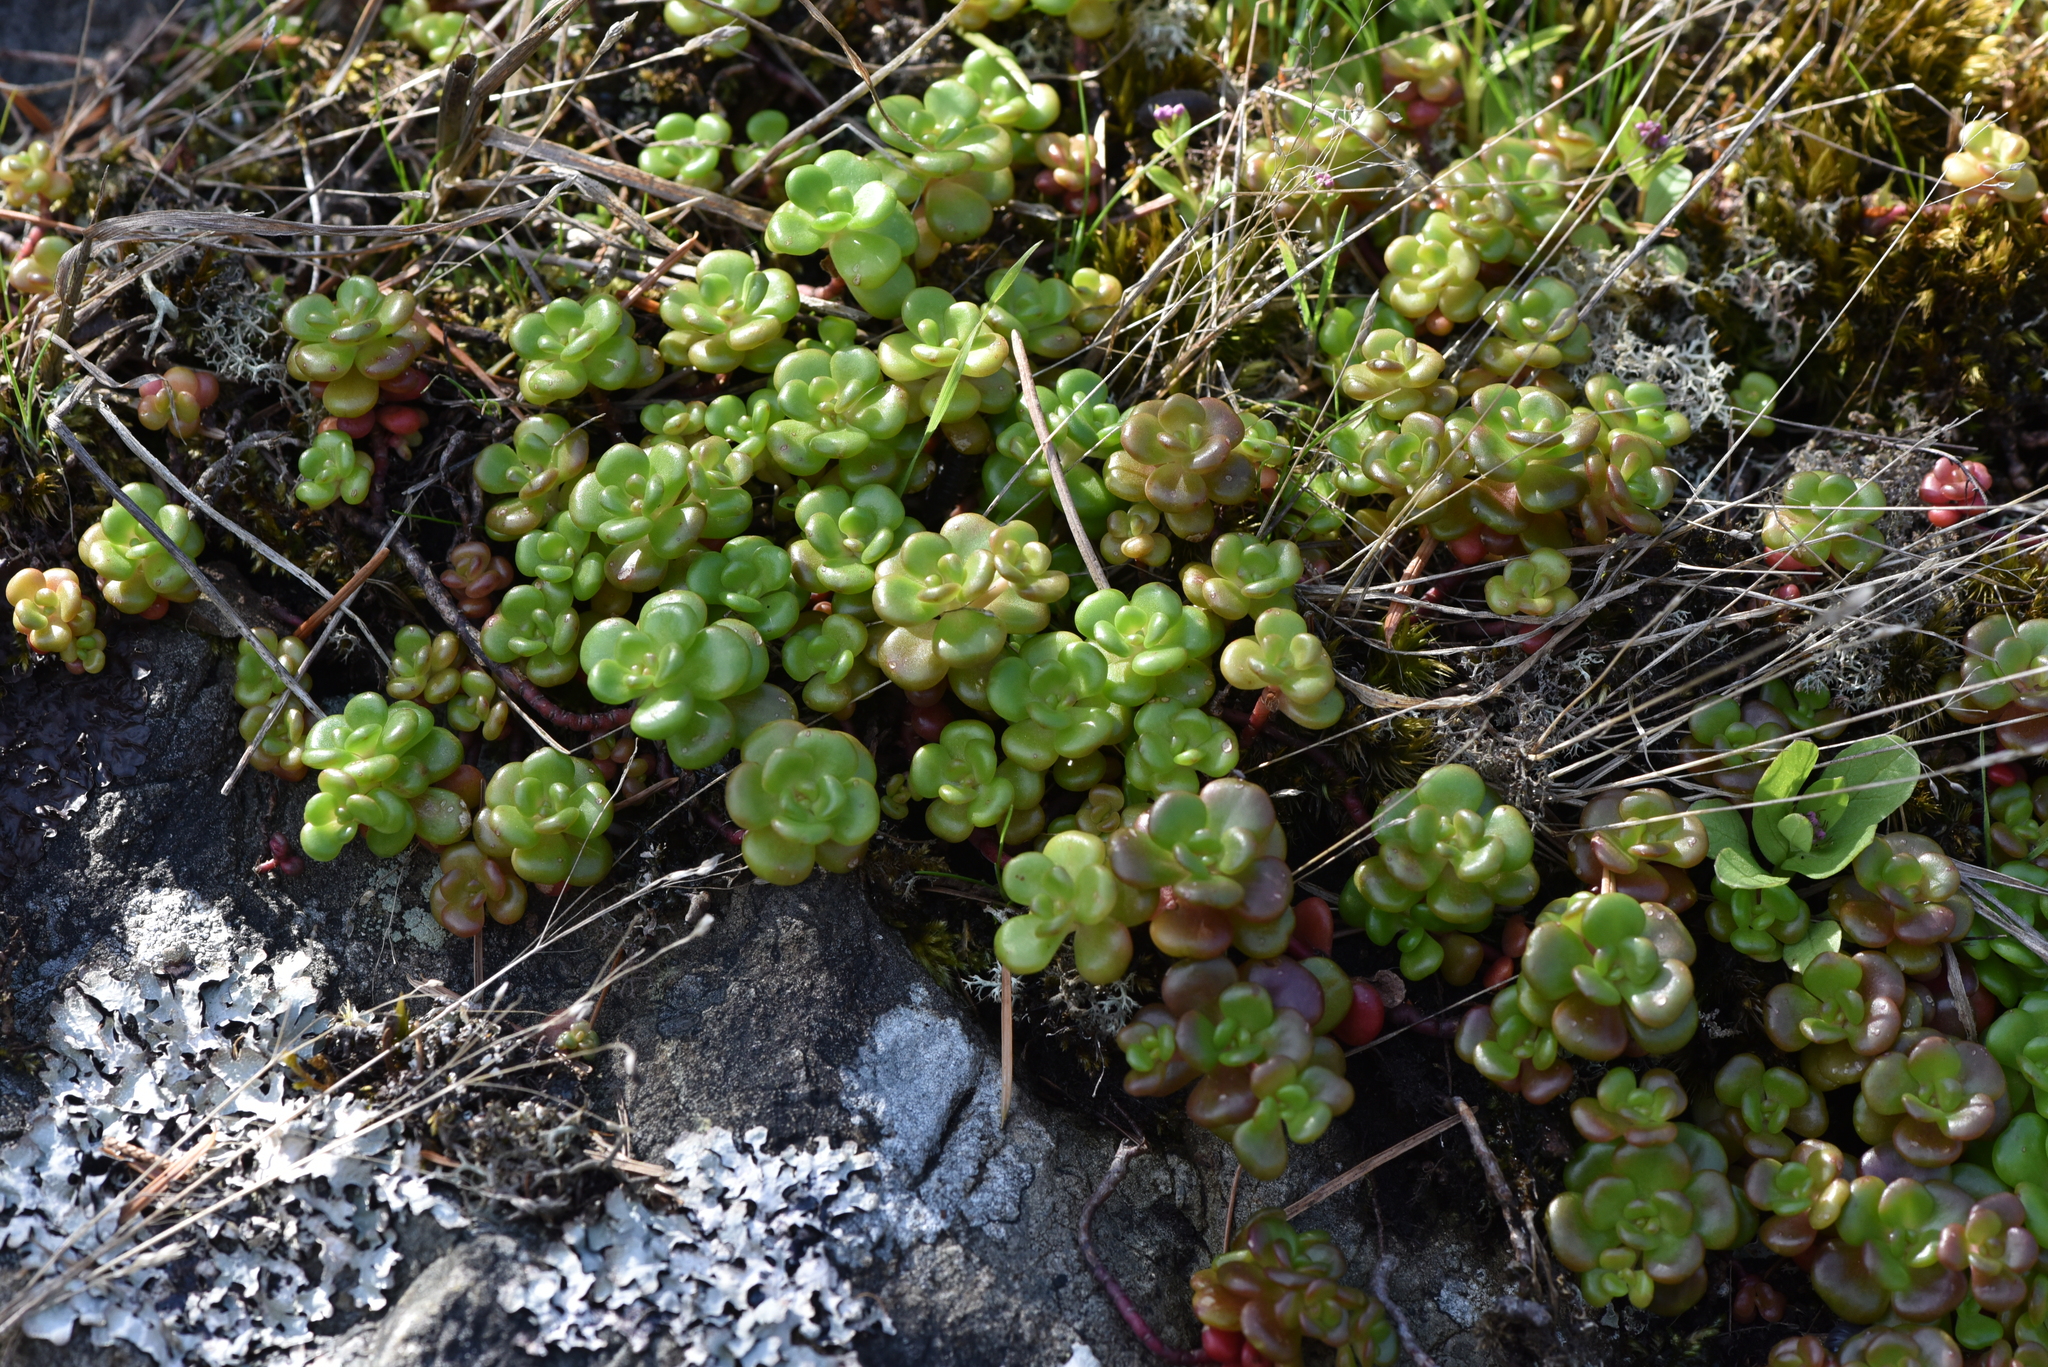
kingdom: Plantae
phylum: Tracheophyta
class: Magnoliopsida
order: Saxifragales
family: Crassulaceae
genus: Sedum
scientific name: Sedum oreganum
